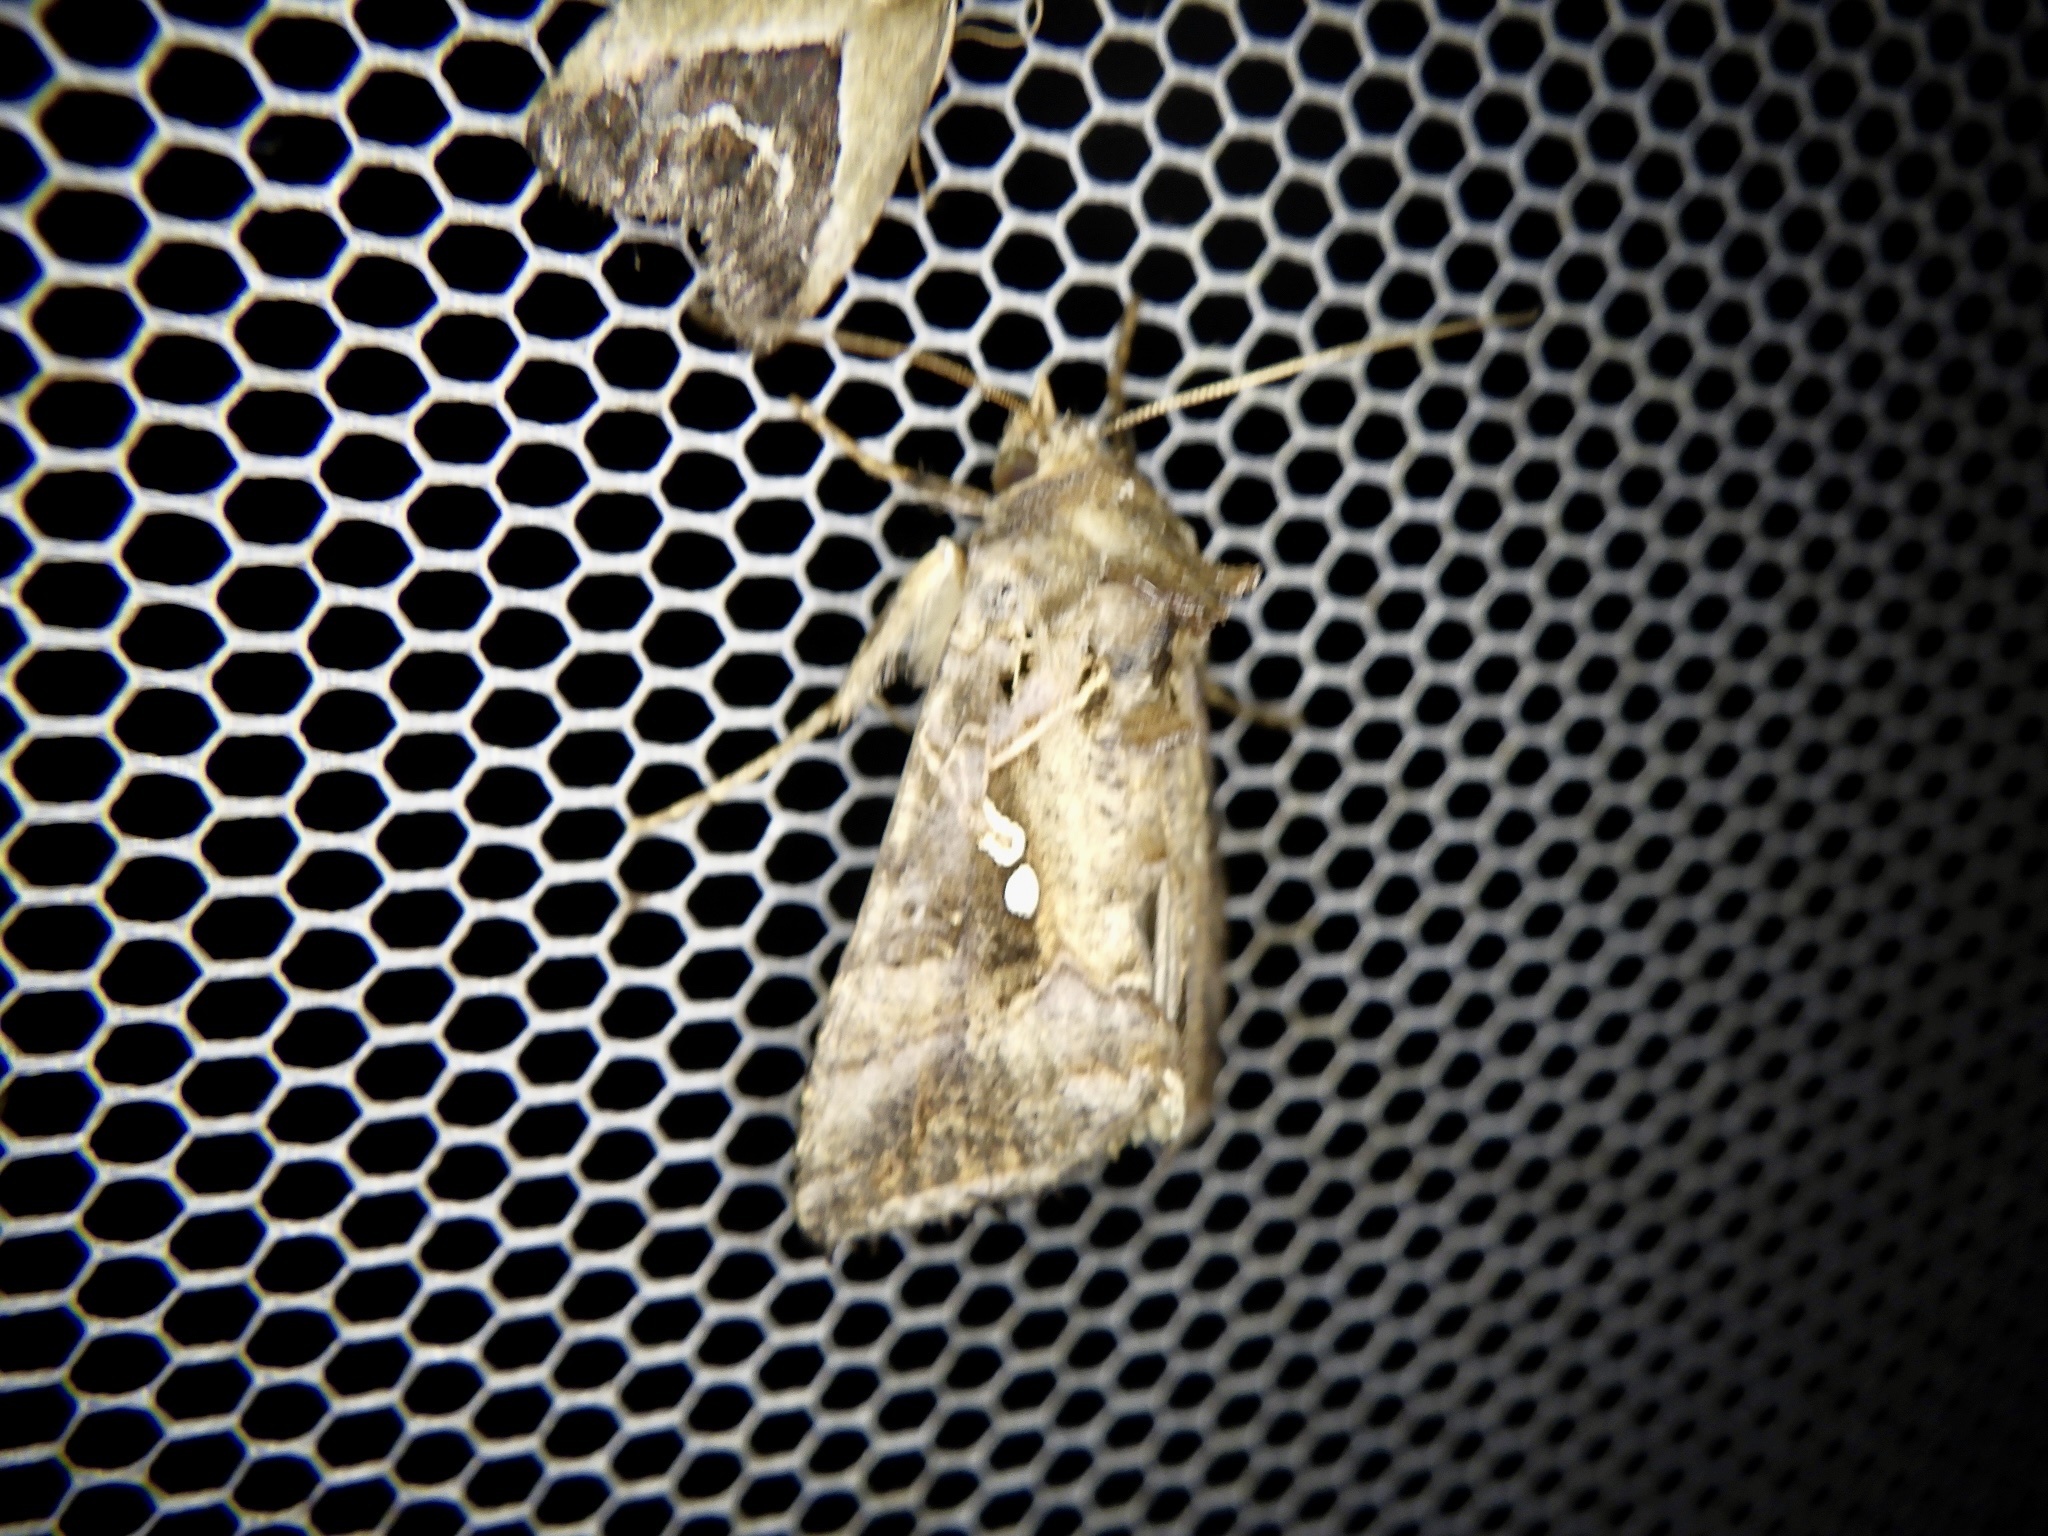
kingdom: Animalia
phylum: Arthropoda
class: Insecta
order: Lepidoptera
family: Noctuidae
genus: Ctenoplusia
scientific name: Ctenoplusia agnata
